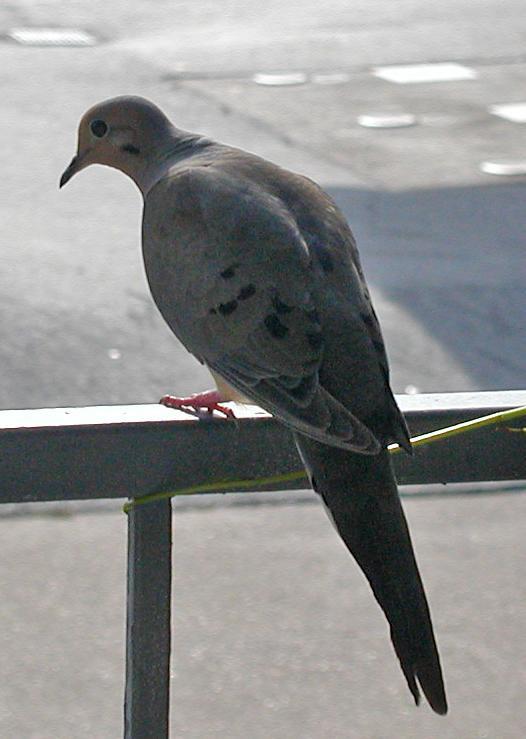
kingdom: Animalia
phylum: Chordata
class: Aves
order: Columbiformes
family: Columbidae
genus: Zenaida
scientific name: Zenaida macroura
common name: Mourning dove
